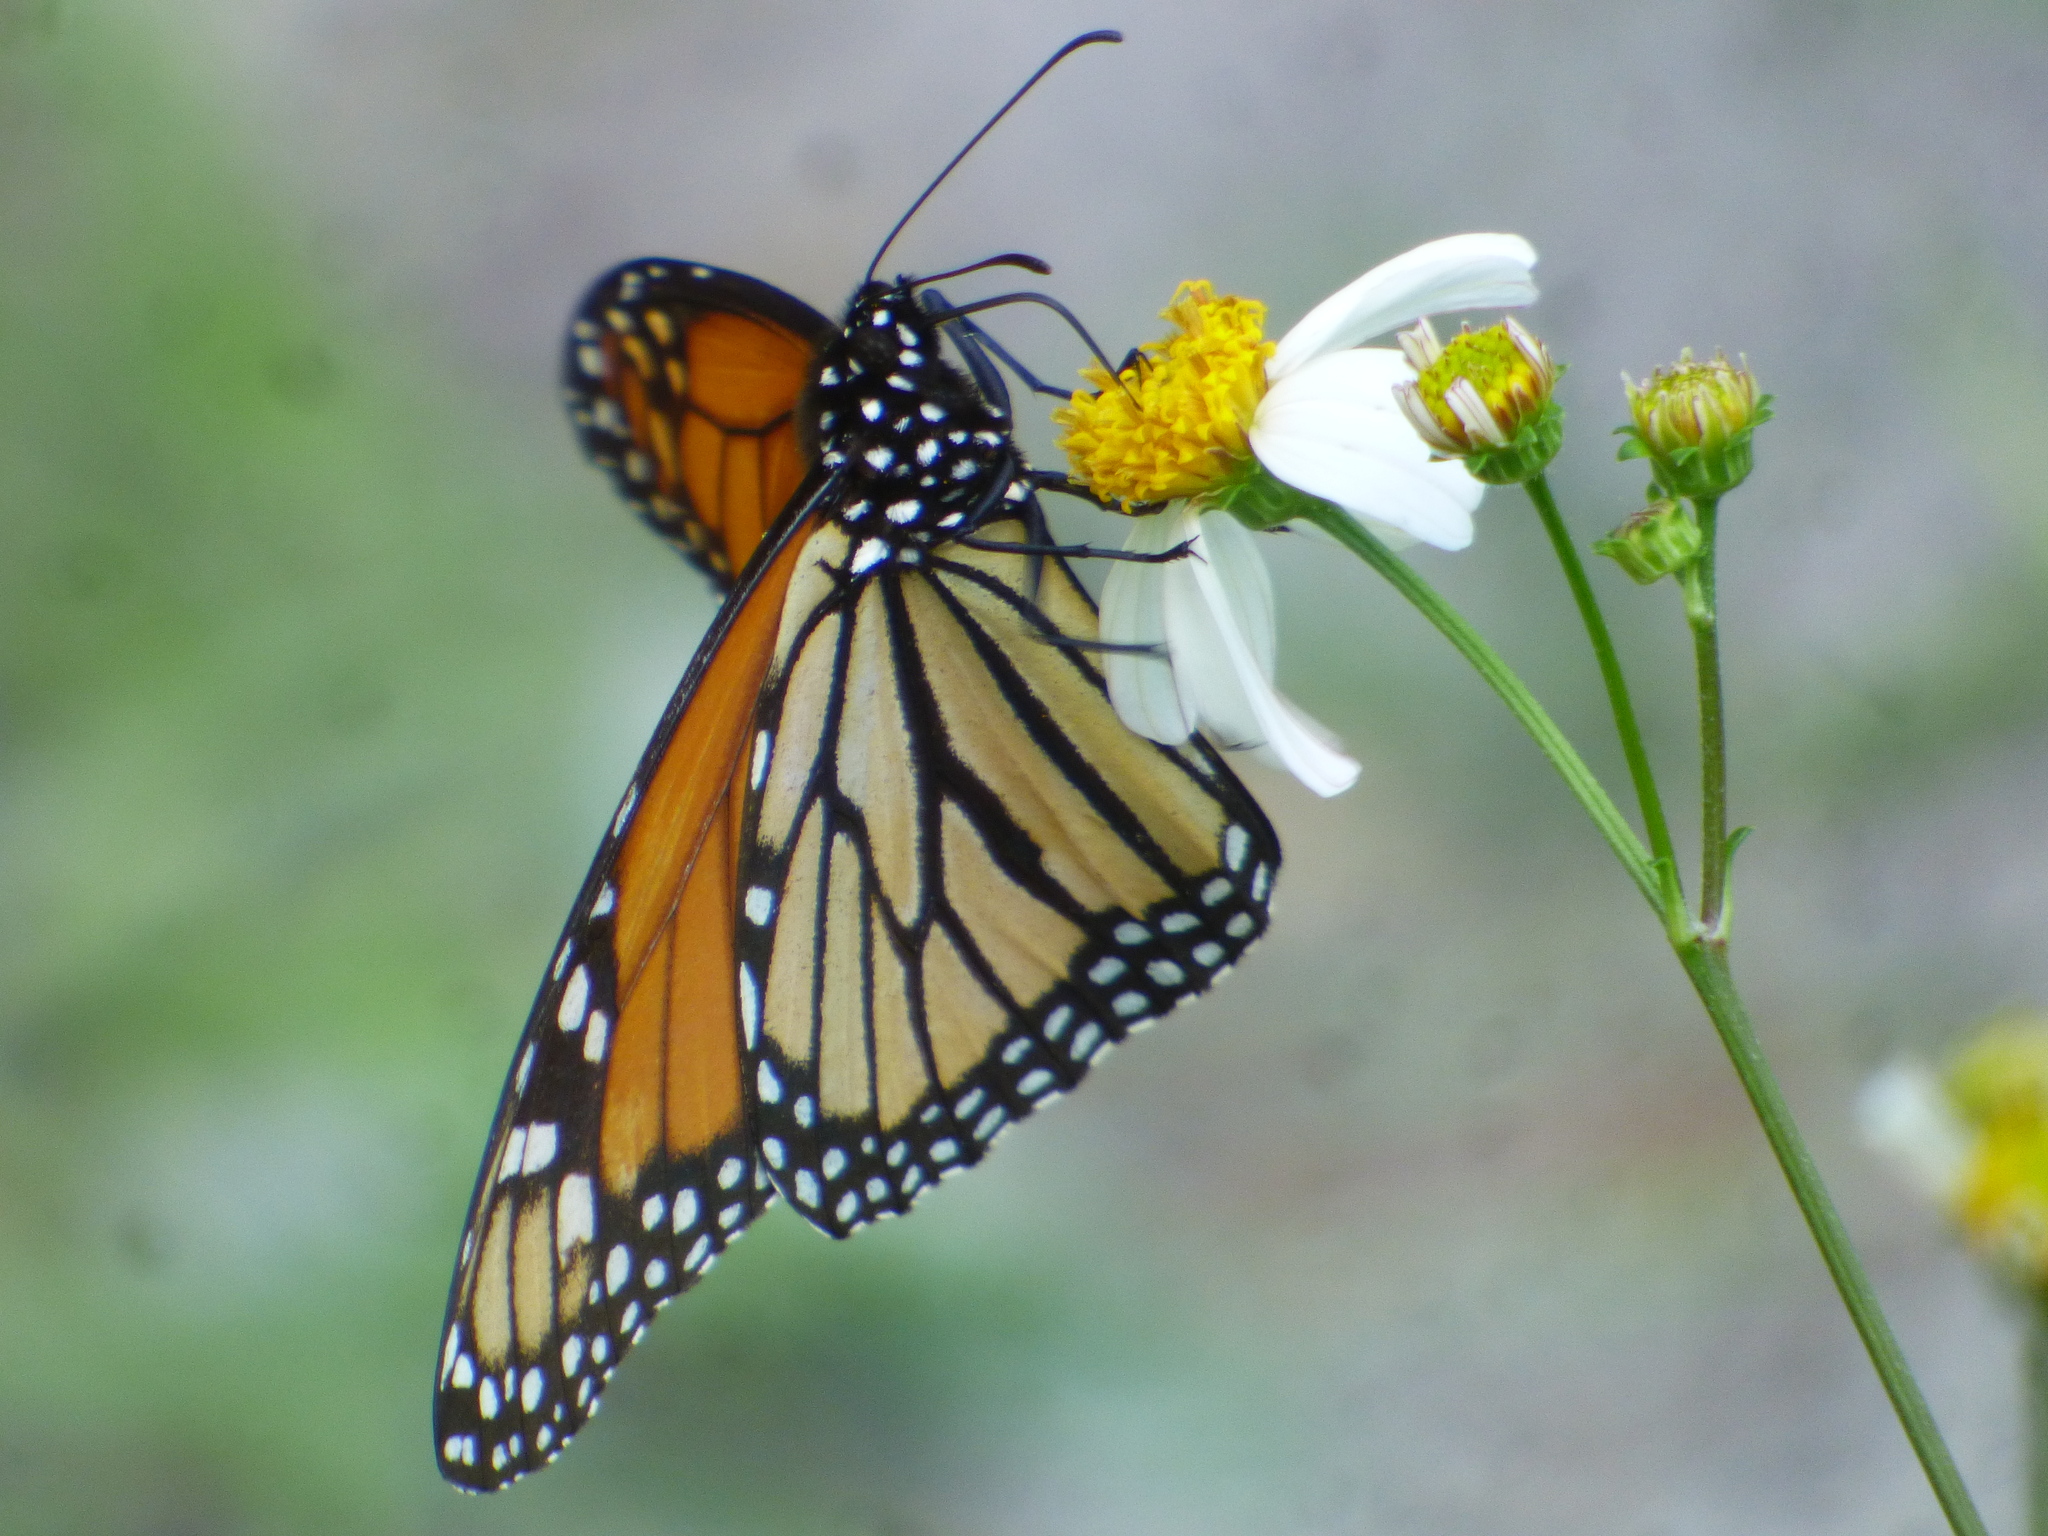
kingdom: Animalia
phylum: Arthropoda
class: Insecta
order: Lepidoptera
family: Nymphalidae
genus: Danaus
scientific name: Danaus plexippus
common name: Monarch
